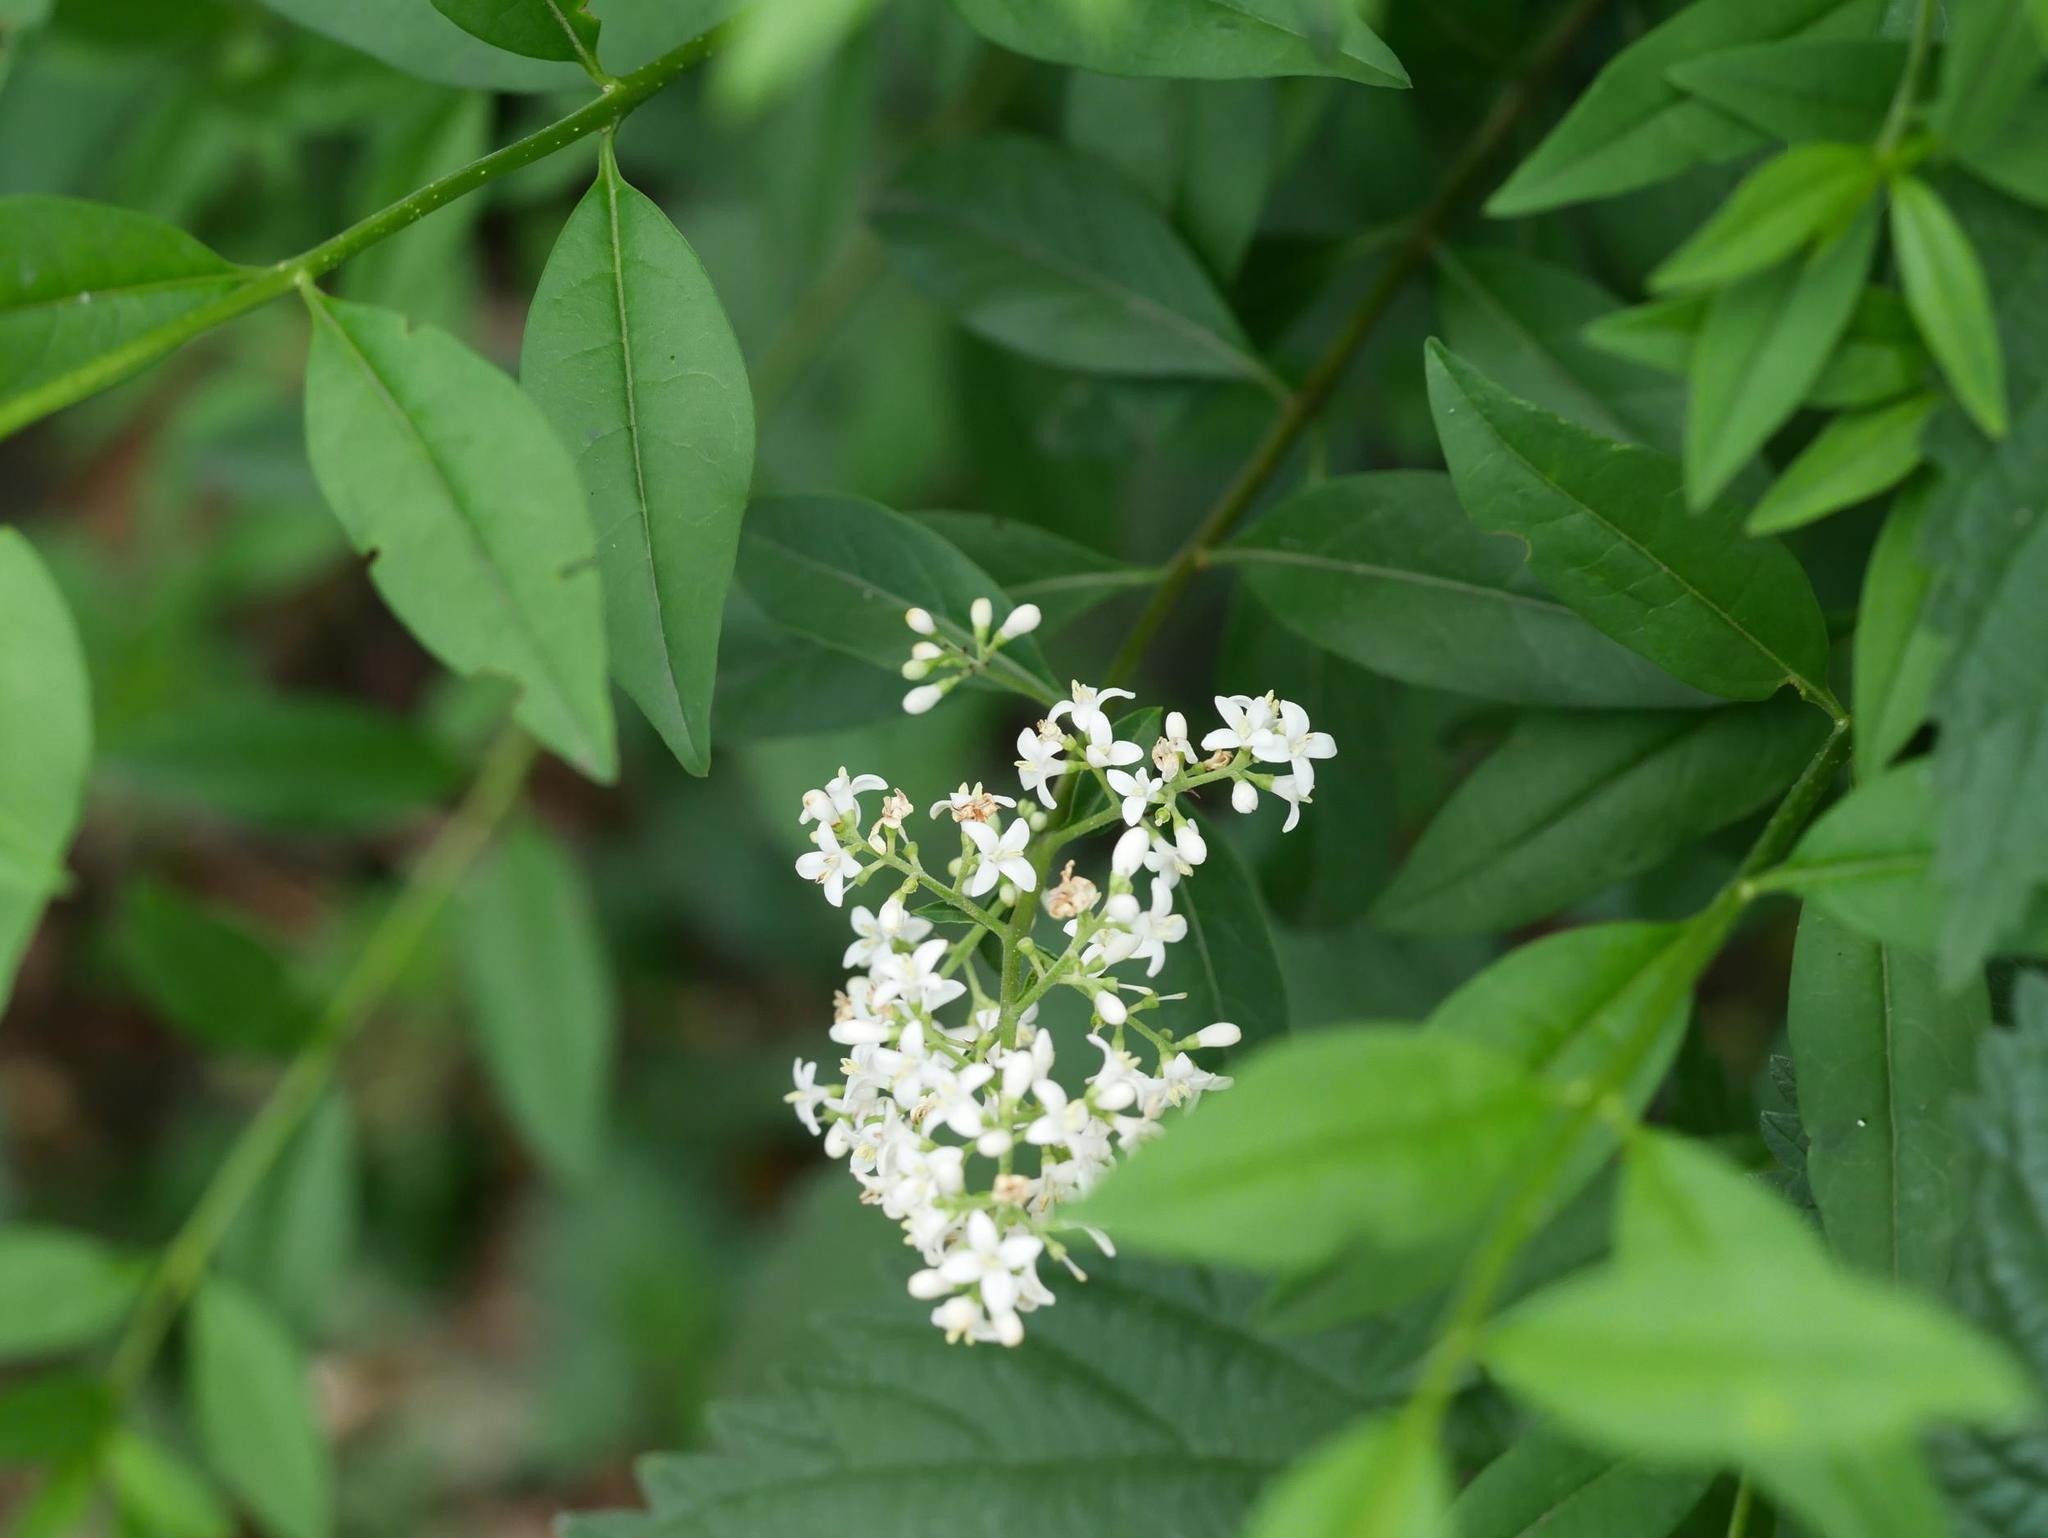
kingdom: Plantae
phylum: Tracheophyta
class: Magnoliopsida
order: Lamiales
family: Oleaceae
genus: Ligustrum
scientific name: Ligustrum vulgare
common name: Wild privet
